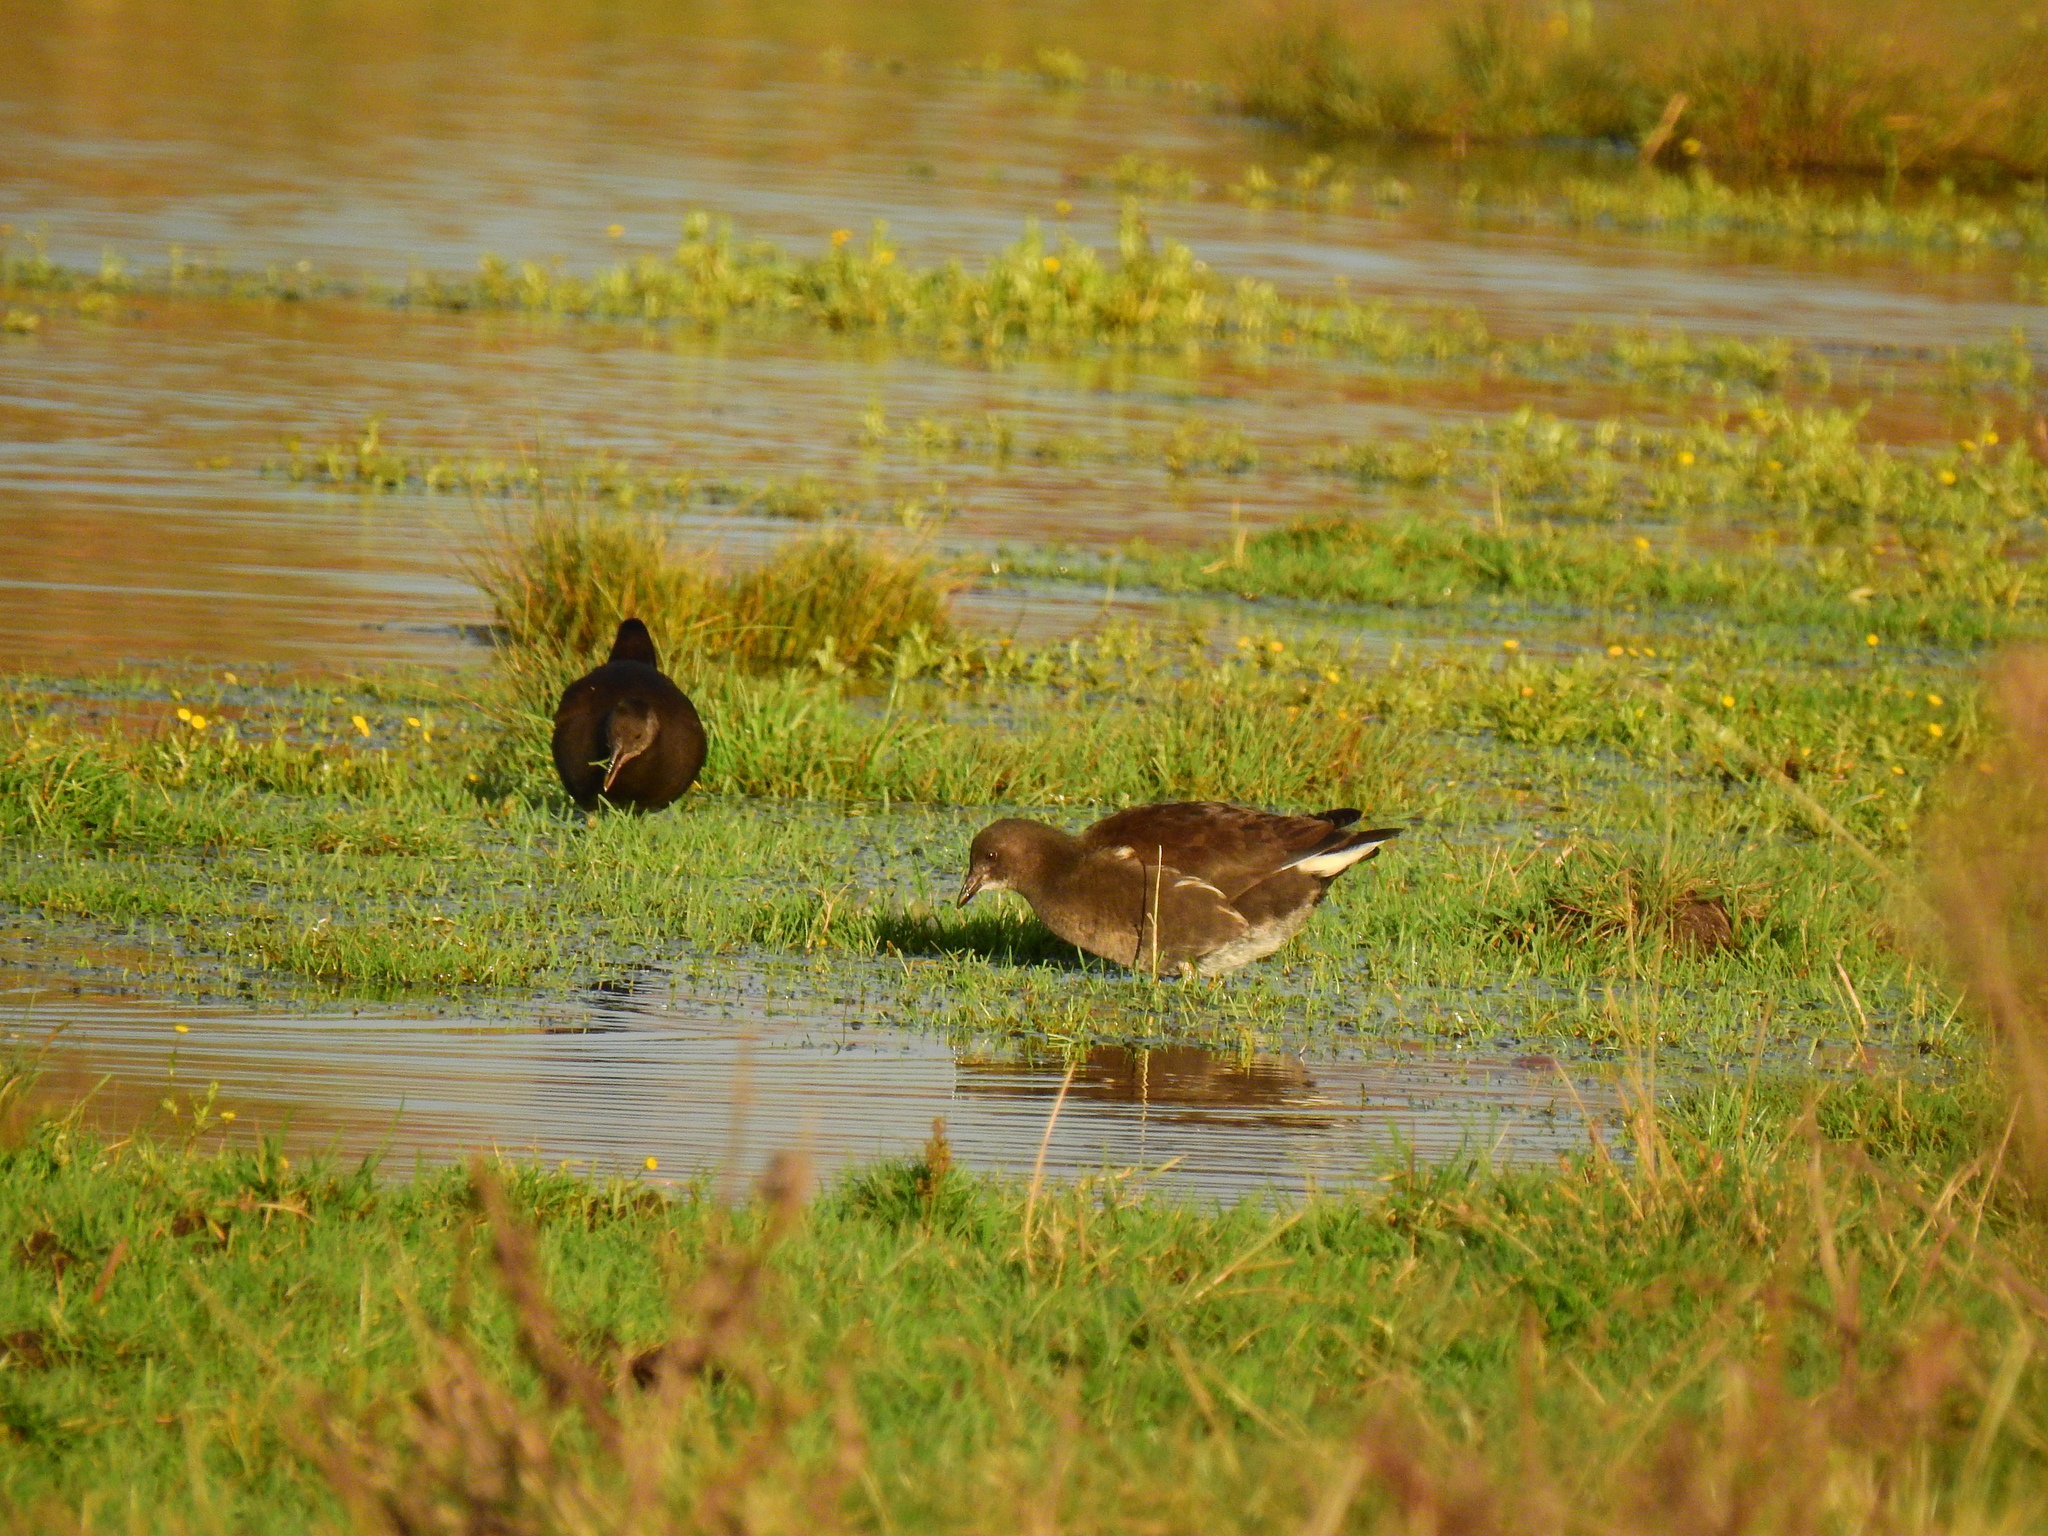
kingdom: Animalia
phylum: Chordata
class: Aves
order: Gruiformes
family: Rallidae
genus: Gallinula
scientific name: Gallinula chloropus
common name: Common moorhen
